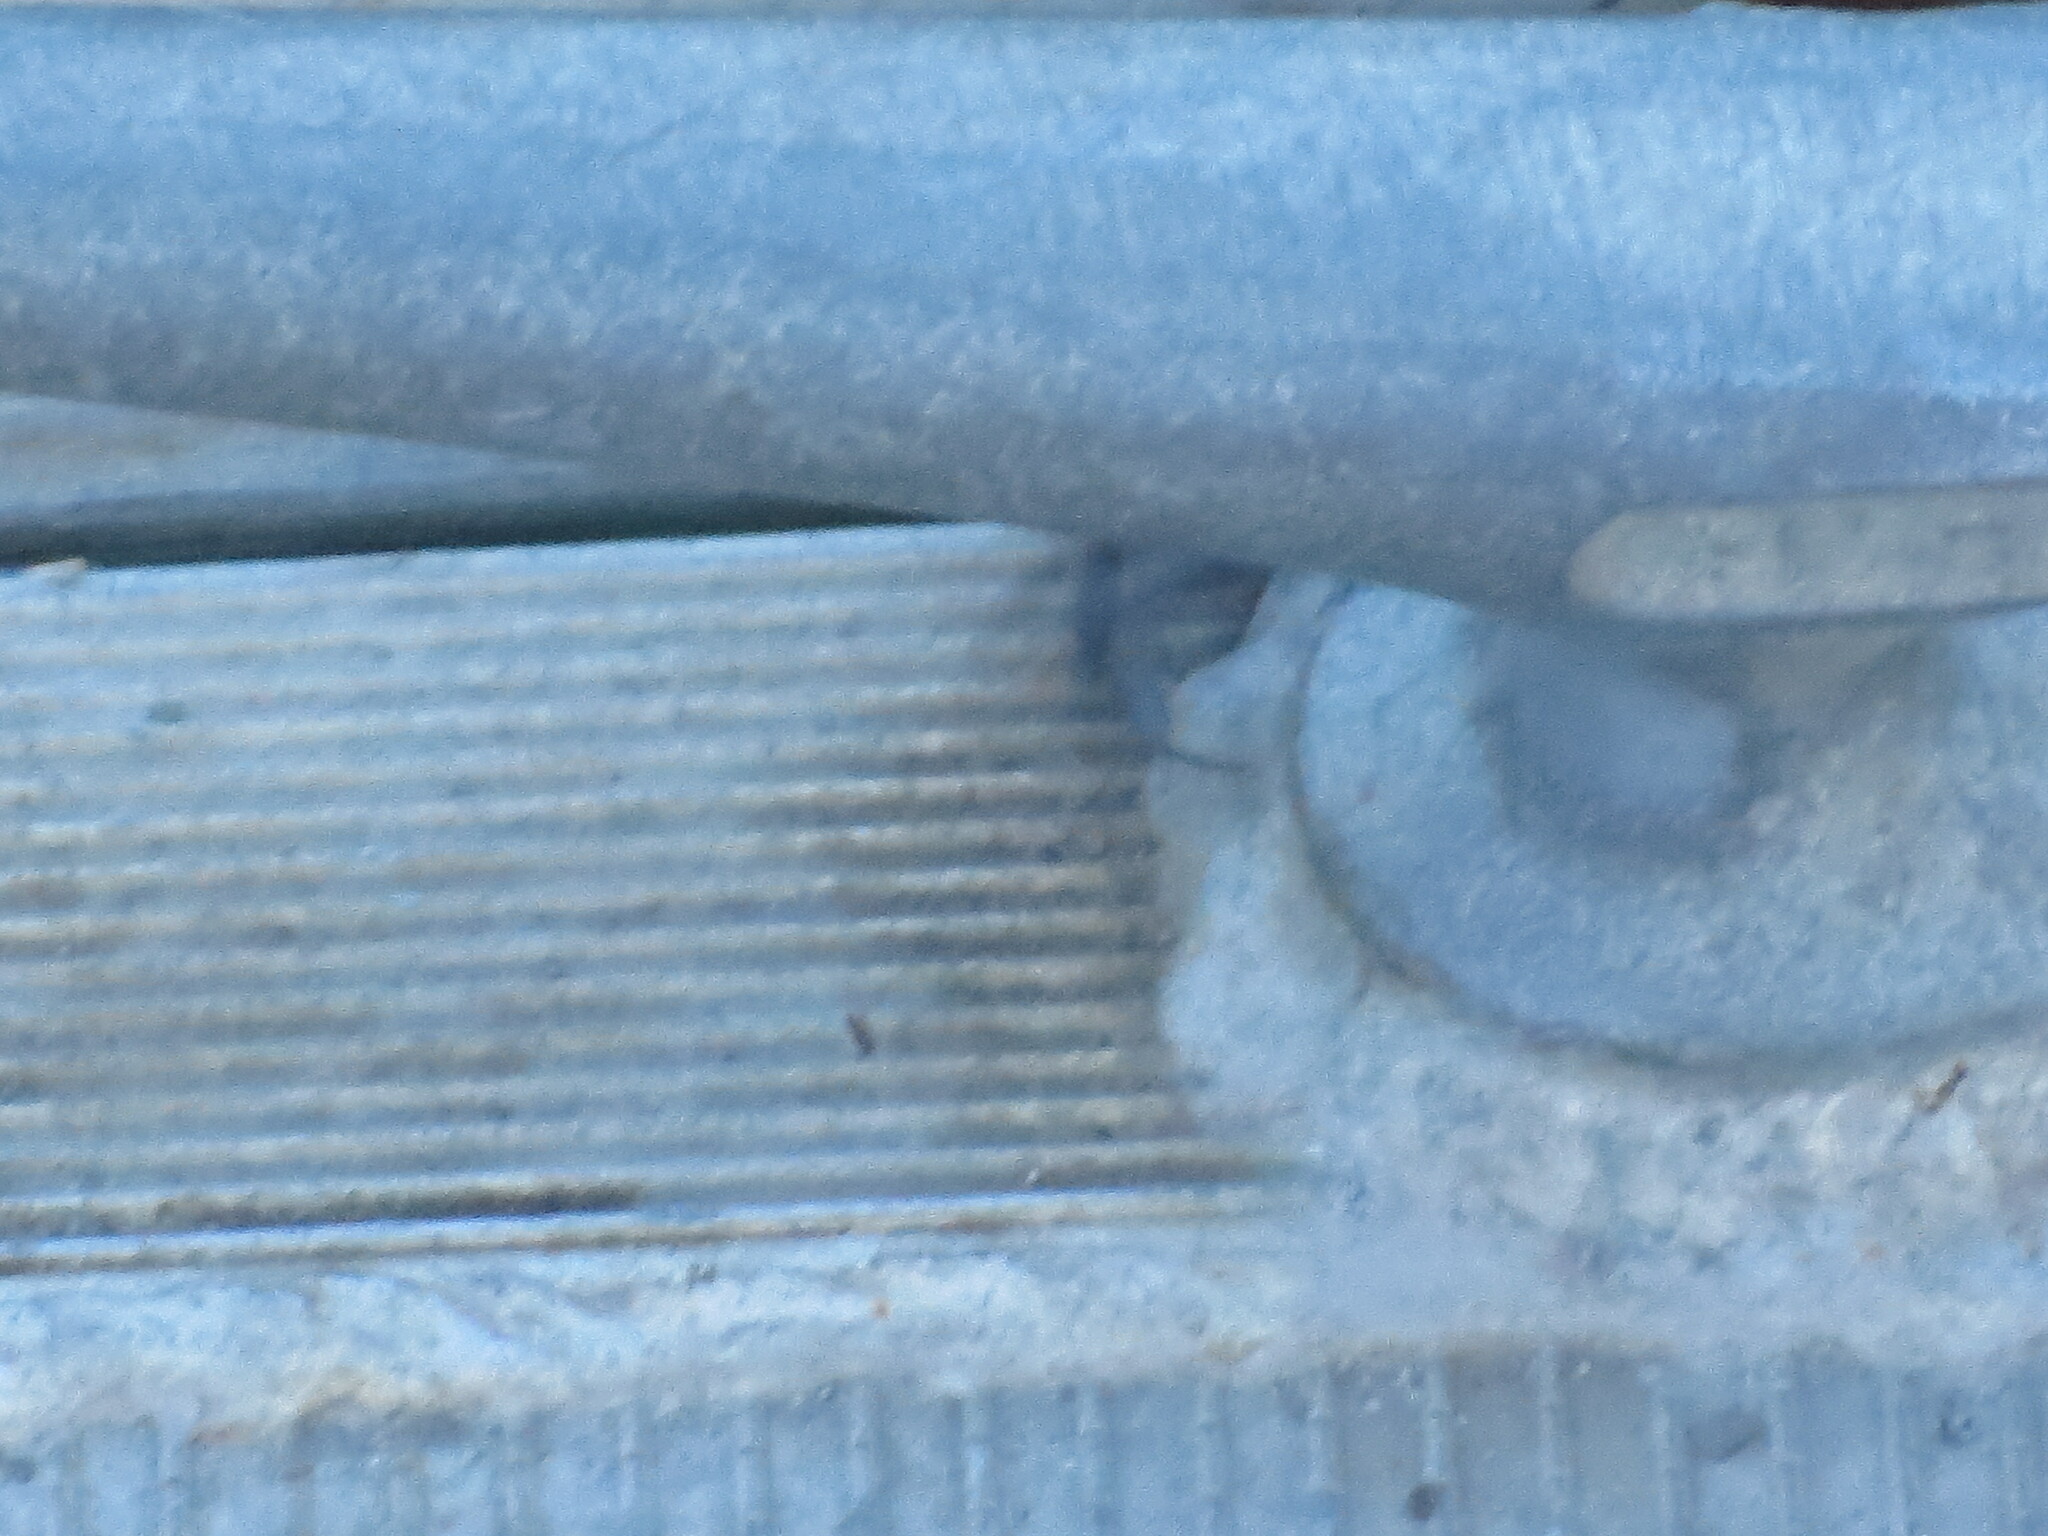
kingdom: Animalia
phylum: Arthropoda
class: Malacostraca
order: Decapoda
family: Sesarmidae
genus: Armases
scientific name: Armases cinereum
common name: Squareback marsh crab
